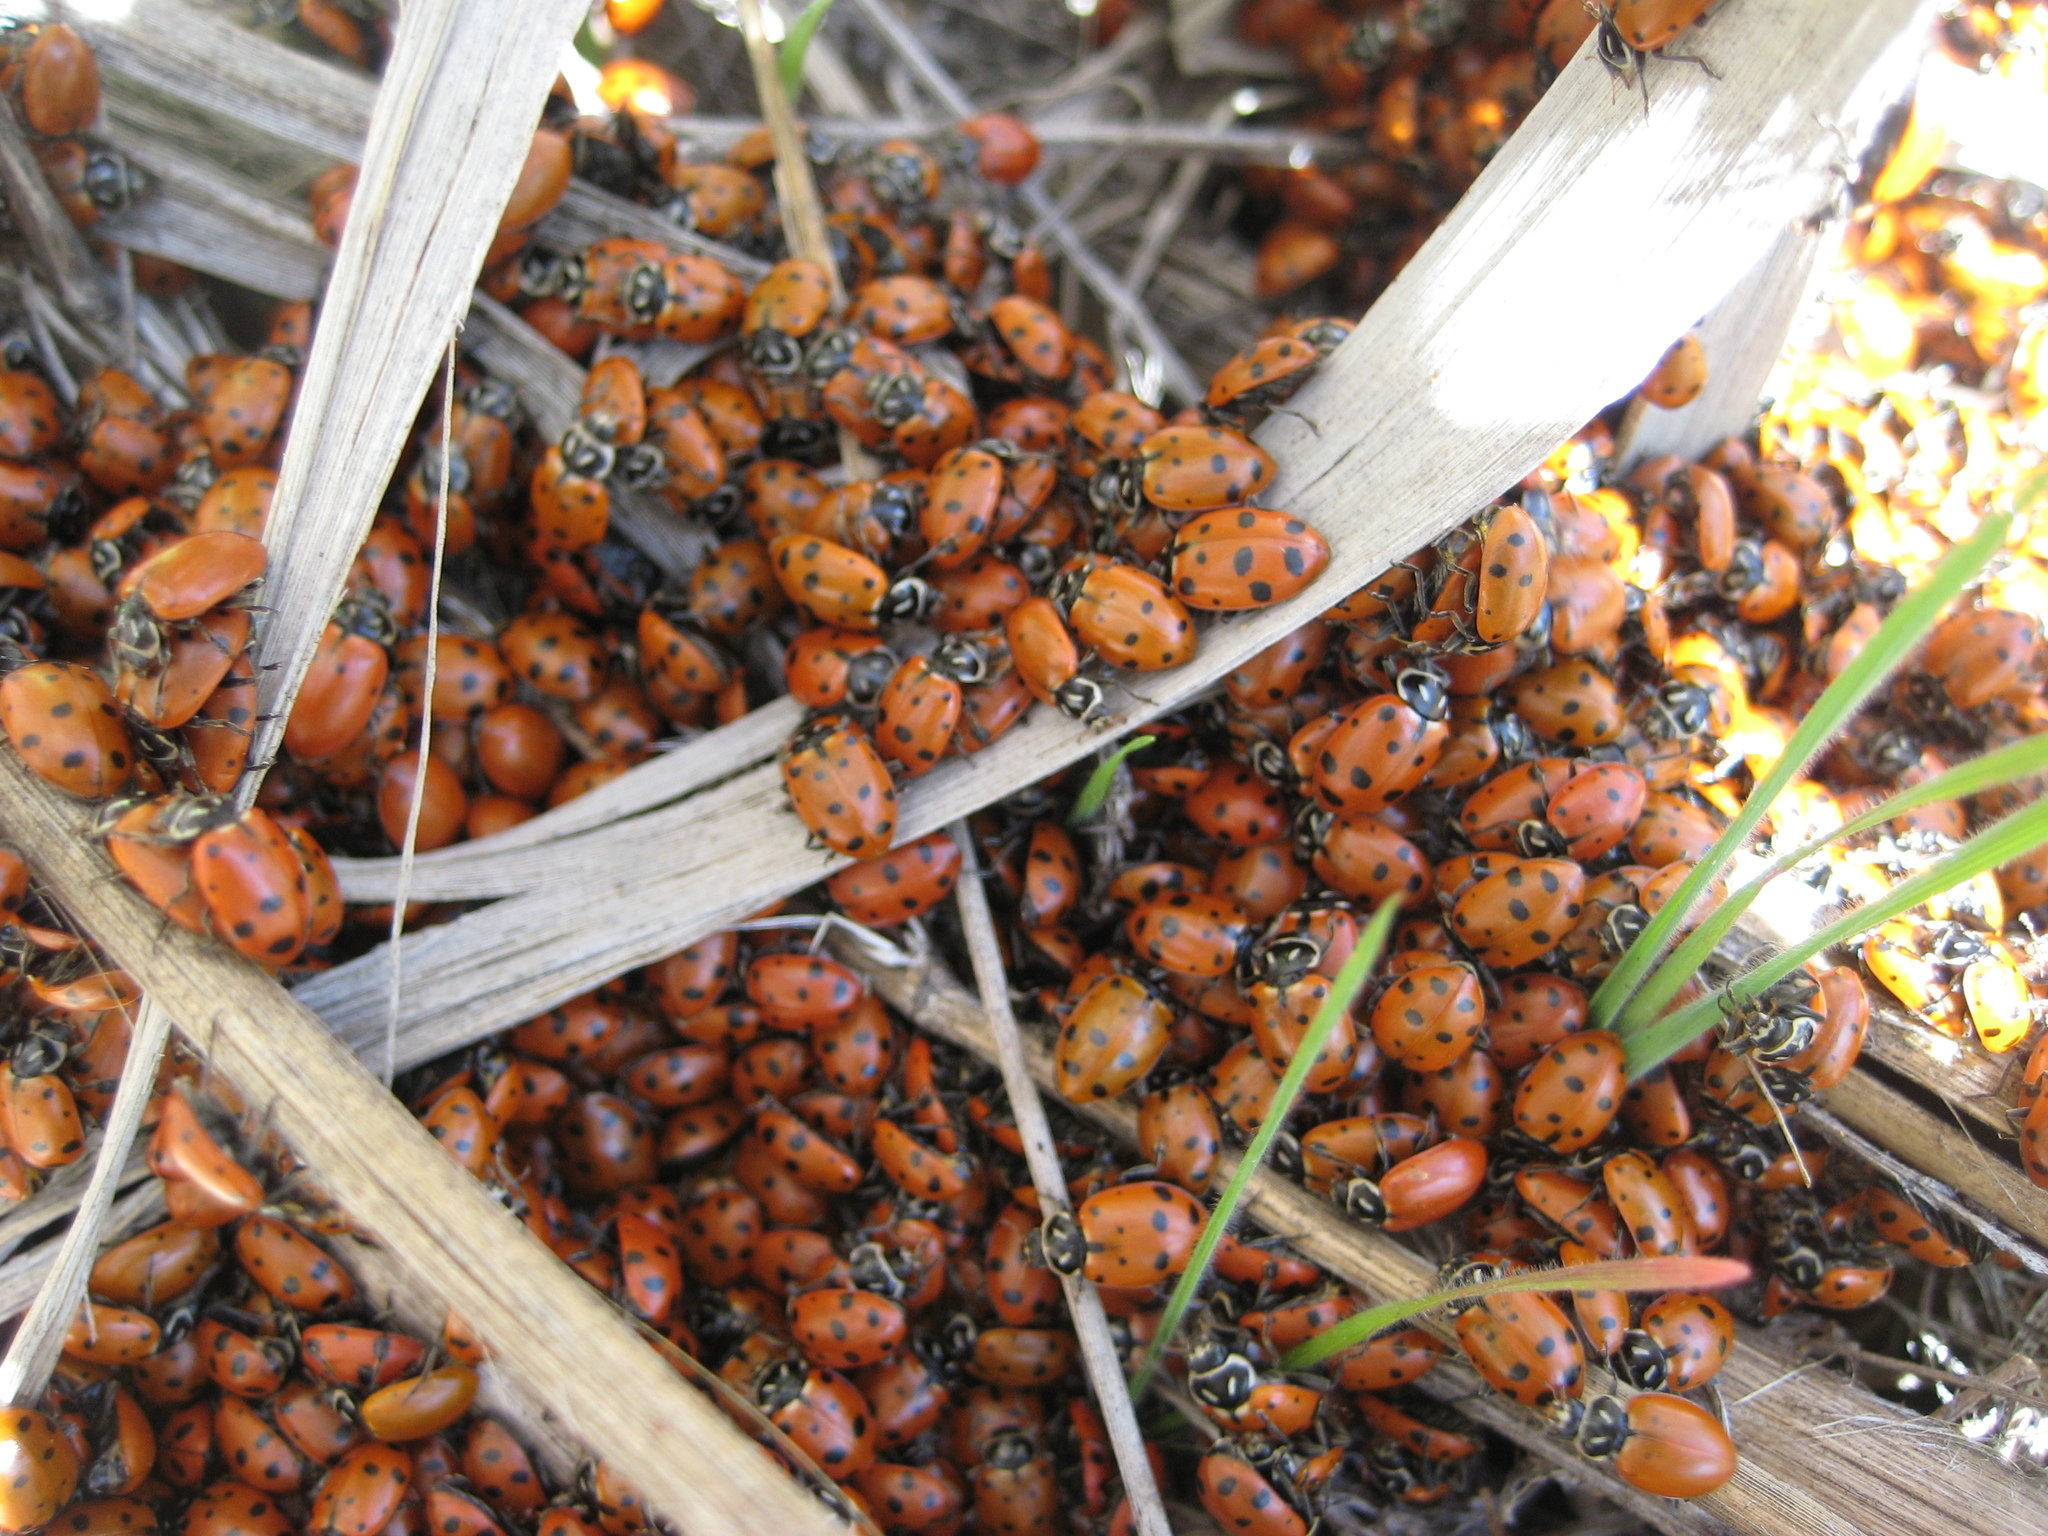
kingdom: Animalia
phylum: Arthropoda
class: Insecta
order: Coleoptera
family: Coccinellidae
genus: Hippodamia
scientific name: Hippodamia convergens
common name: Convergent lady beetle
